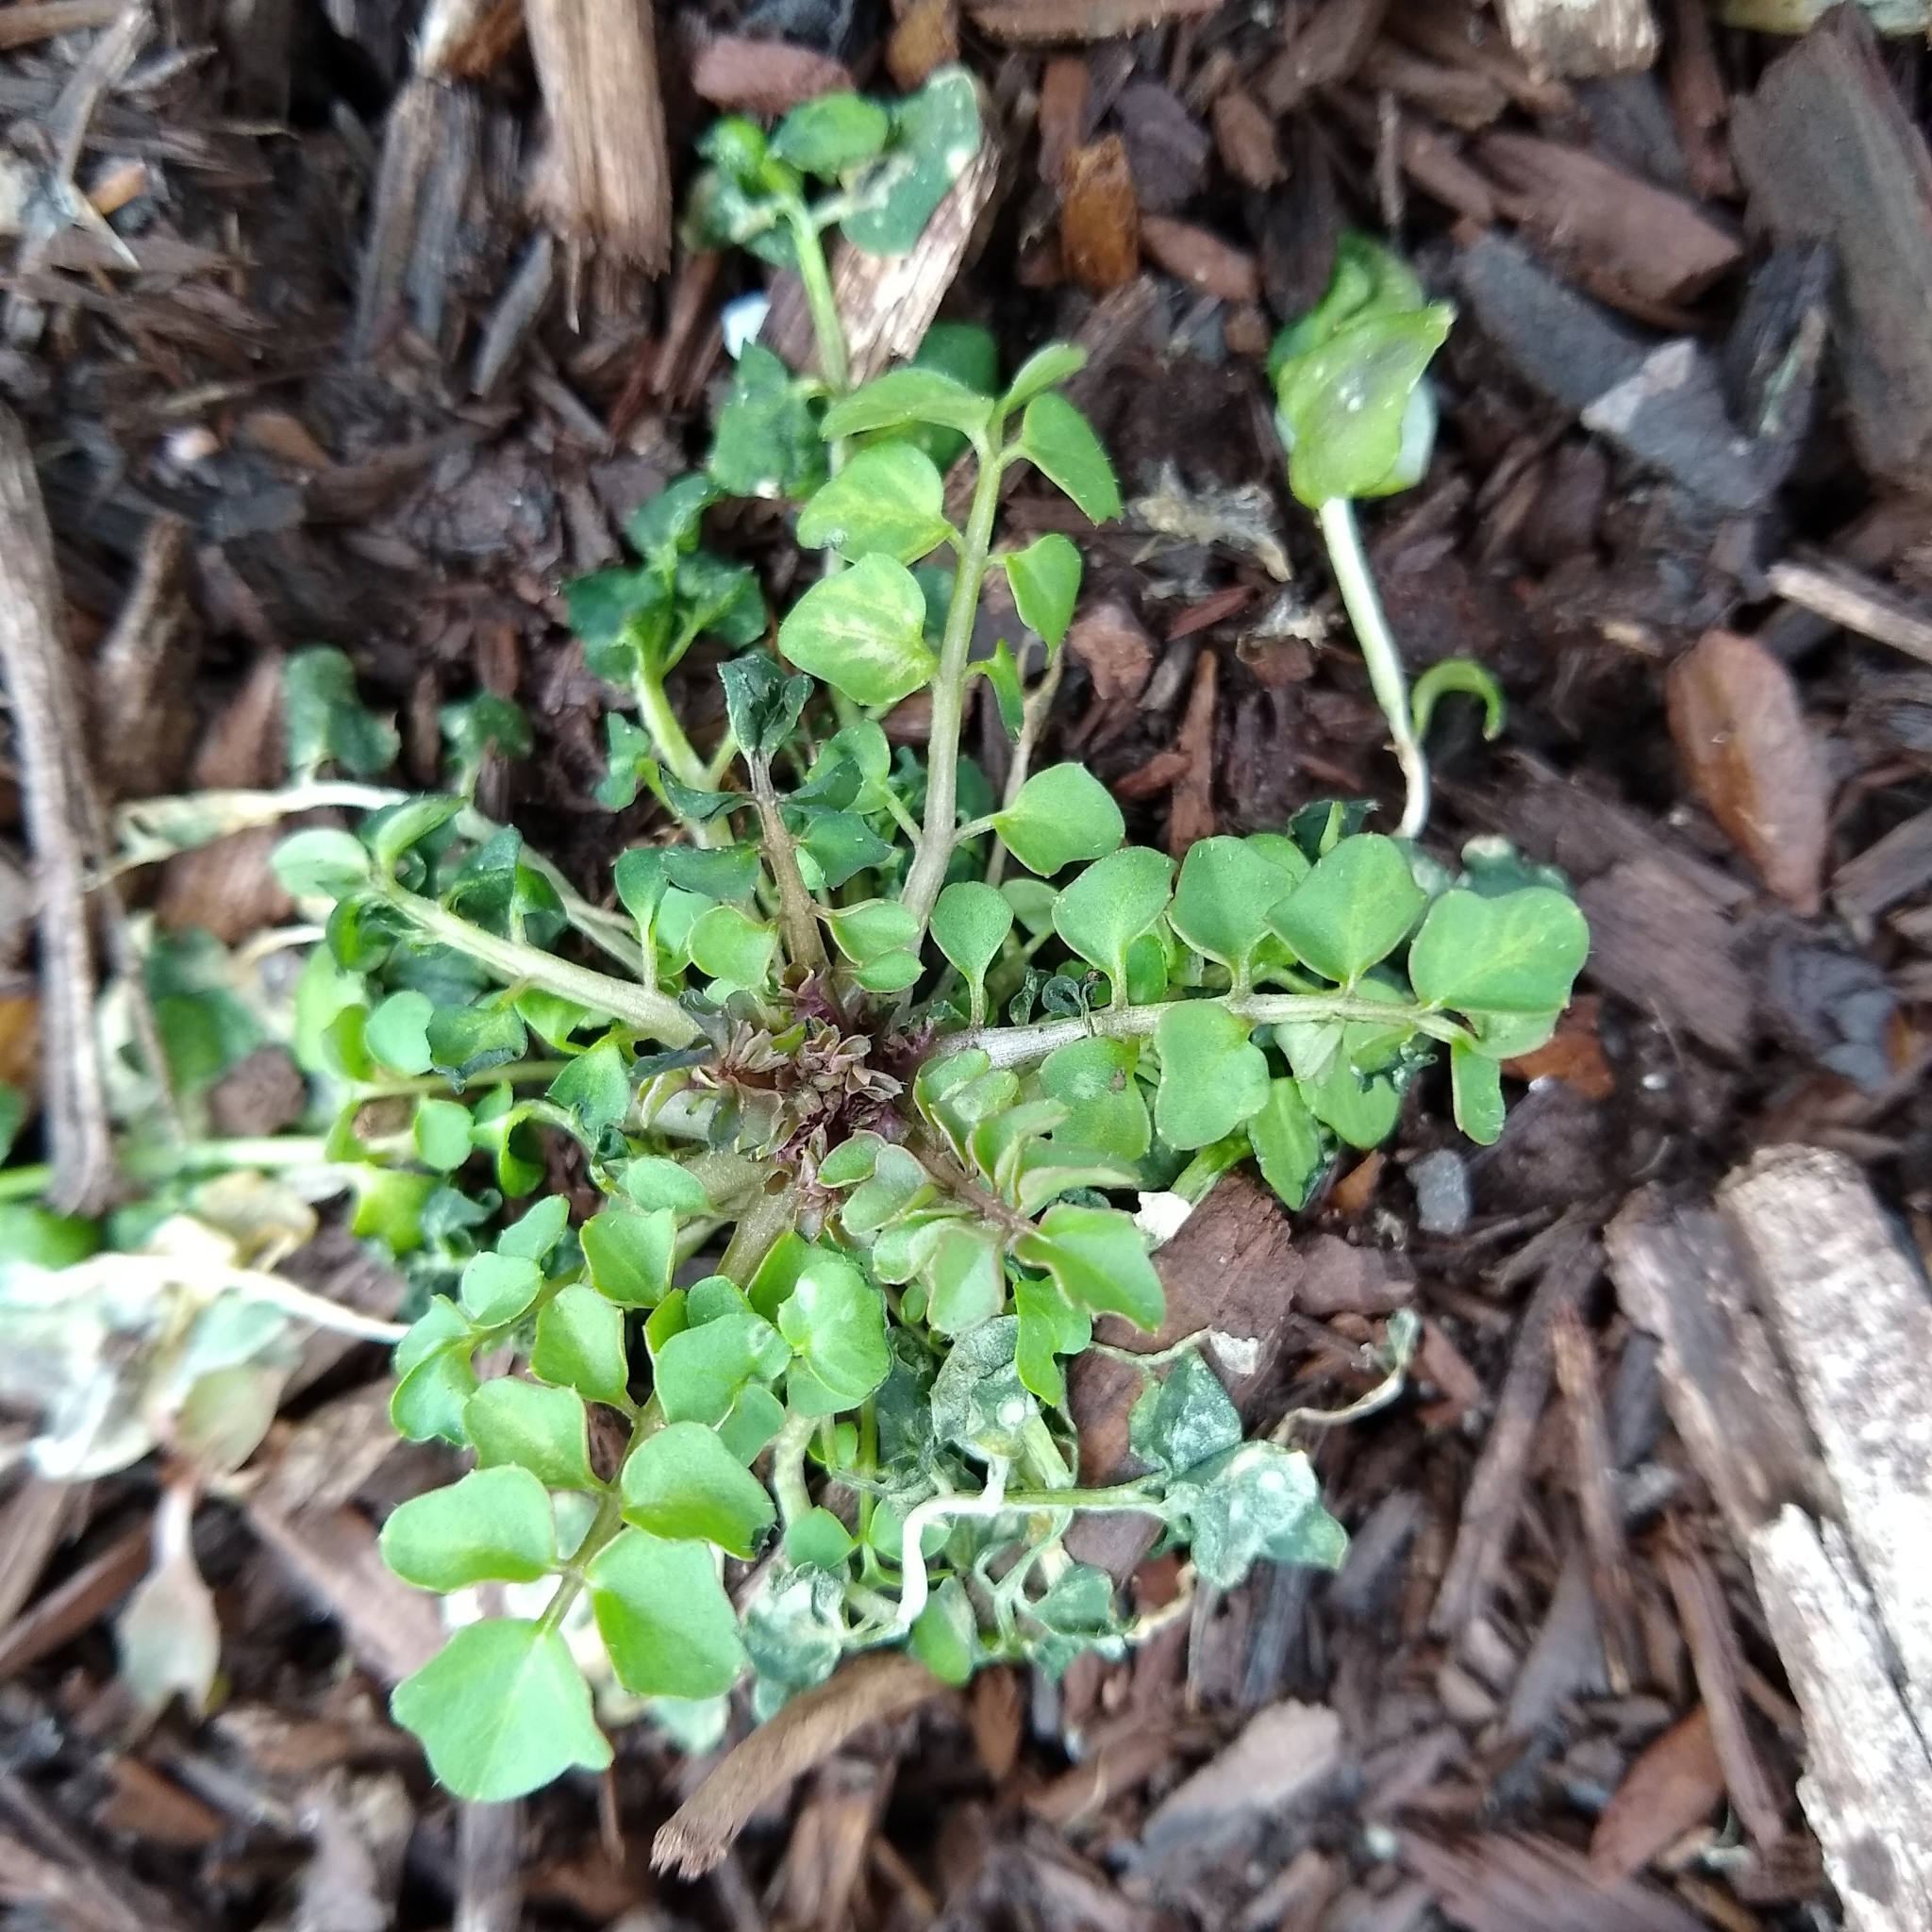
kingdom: Plantae
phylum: Tracheophyta
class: Magnoliopsida
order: Brassicales
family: Brassicaceae
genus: Cardamine
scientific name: Cardamine hirsuta
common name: Hairy bittercress
